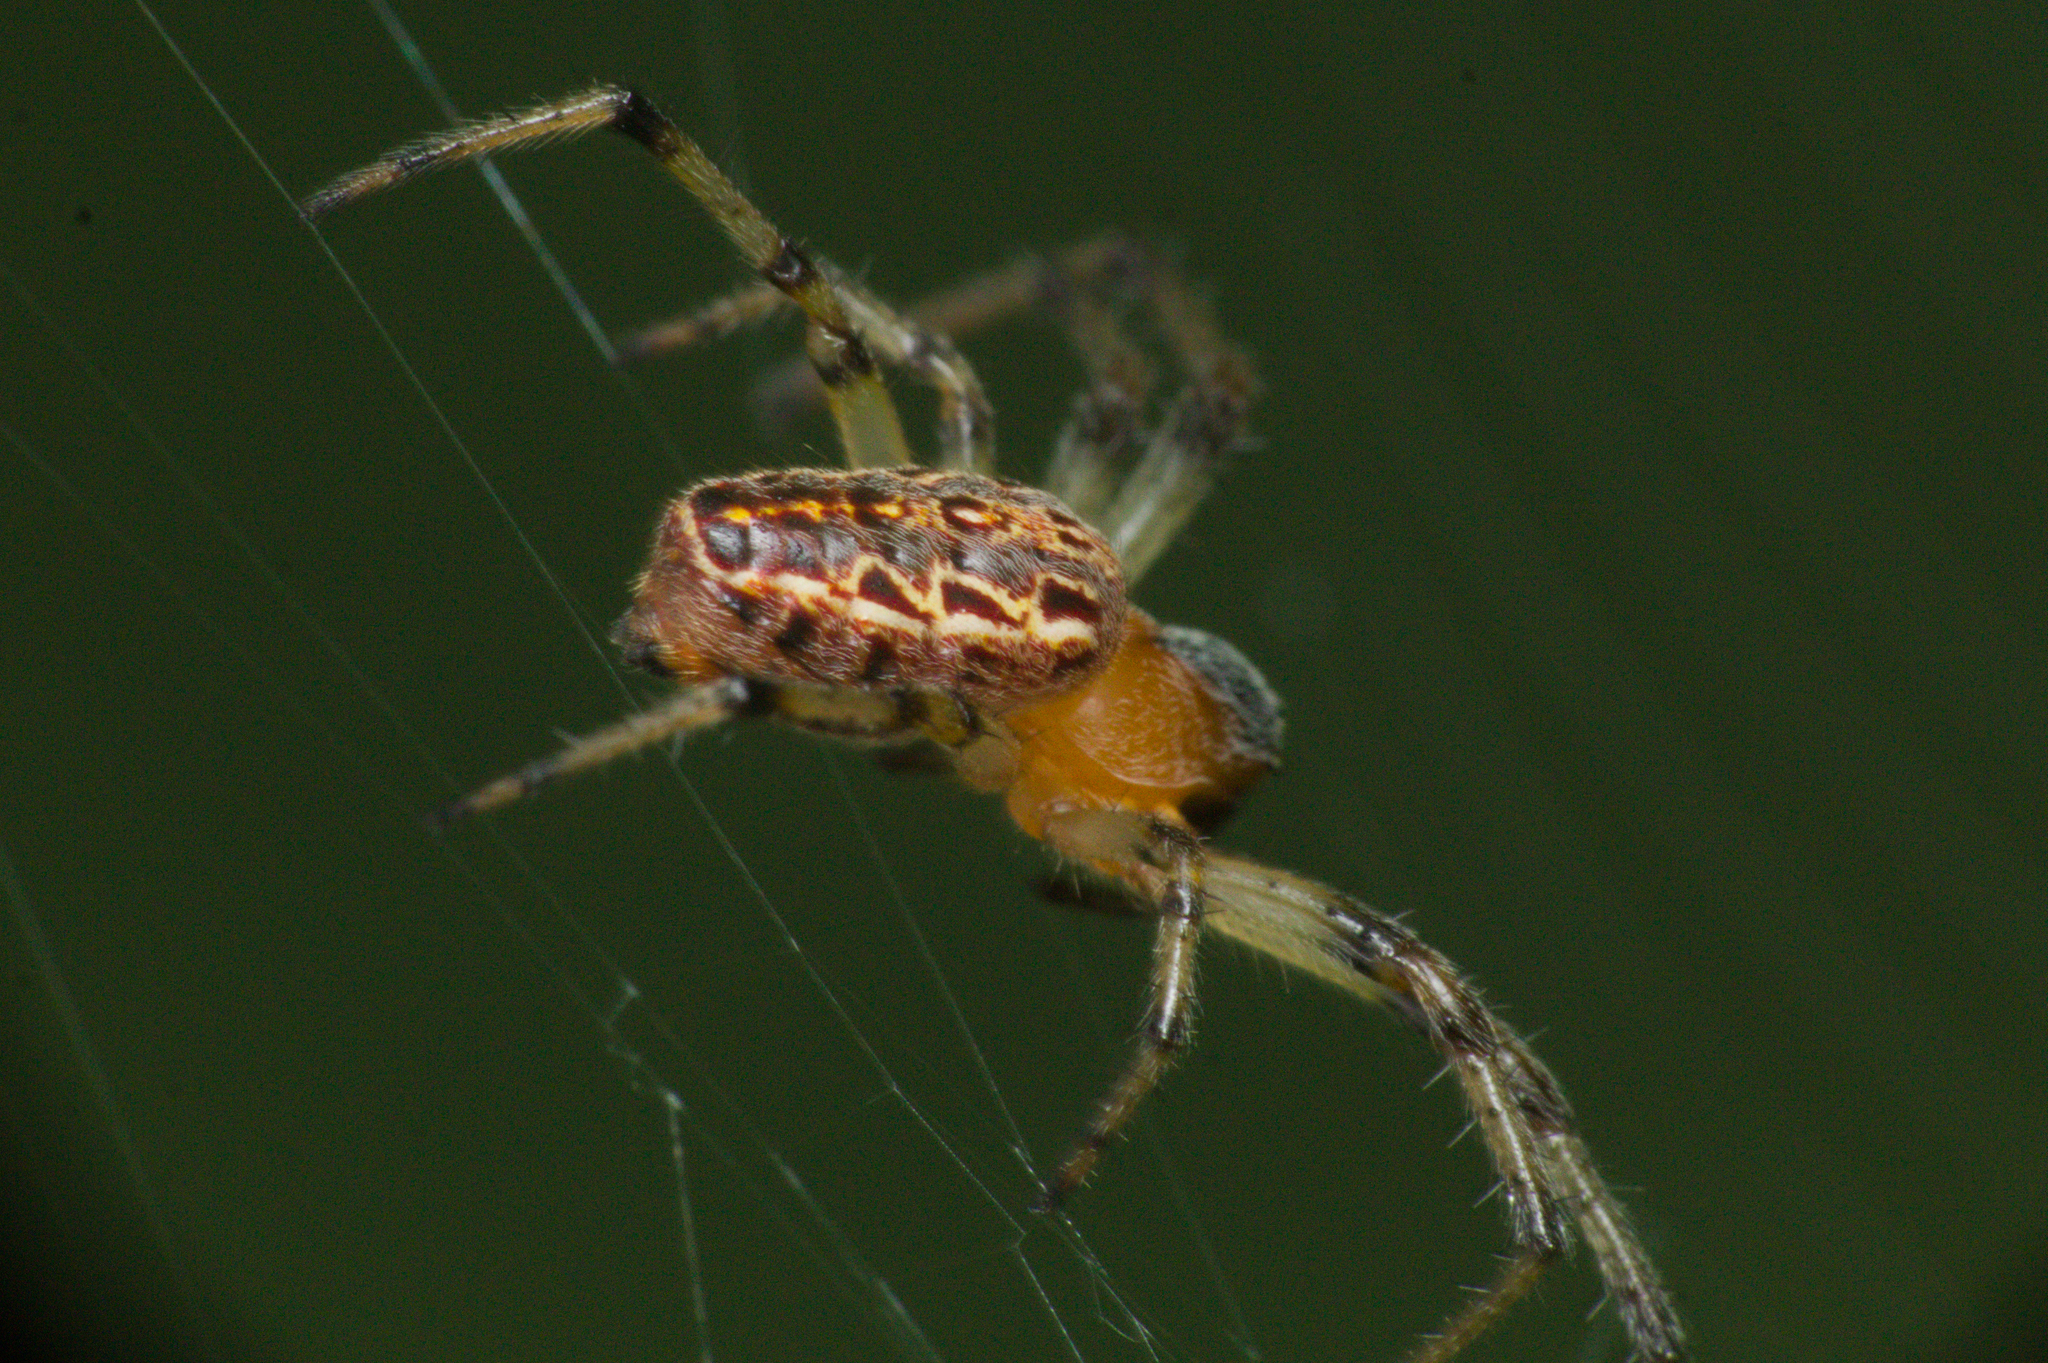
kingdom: Animalia
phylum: Arthropoda
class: Arachnida
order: Araneae
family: Araneidae
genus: Alpaida
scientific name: Alpaida veniliae
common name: Orb weavers
